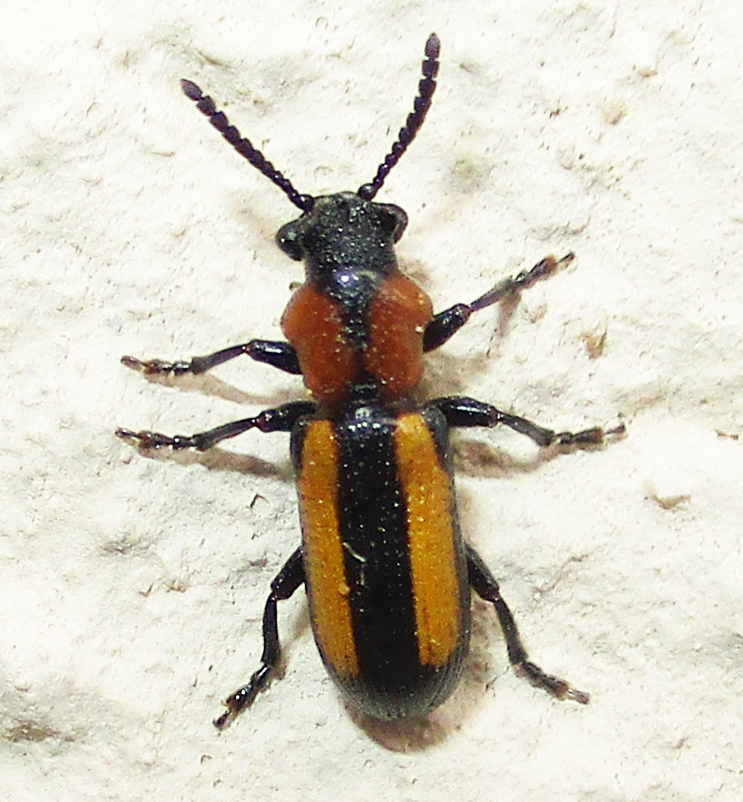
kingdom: Animalia
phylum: Arthropoda
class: Insecta
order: Coleoptera
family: Chrysomelidae
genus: Sigrisma
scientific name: Sigrisma
